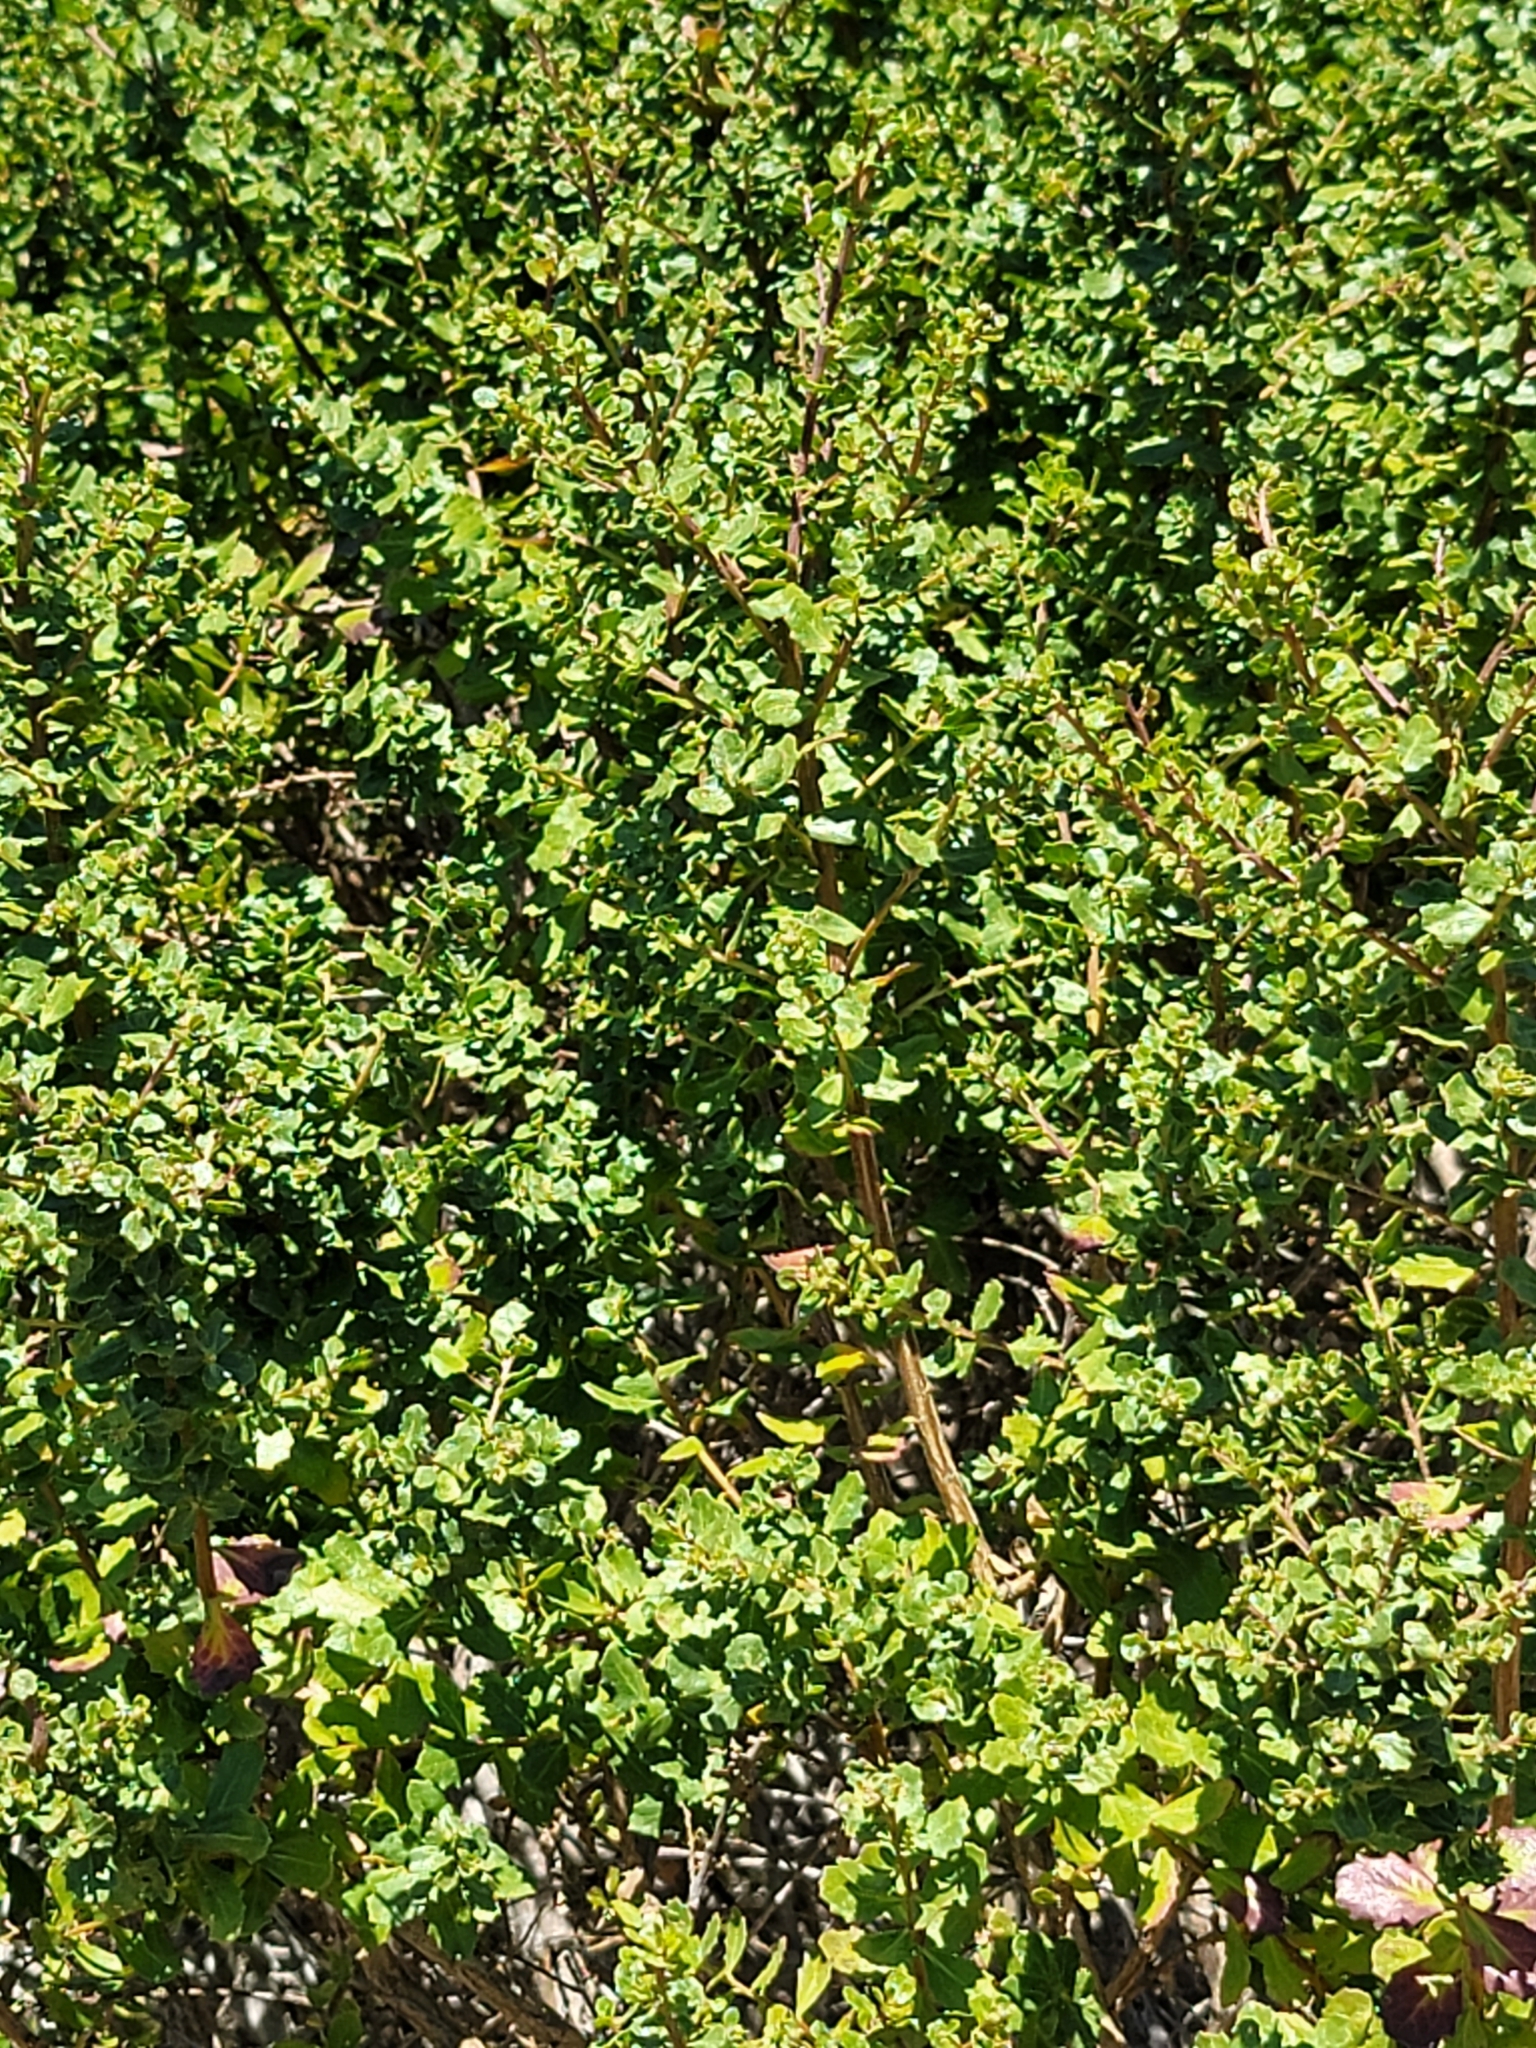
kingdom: Plantae
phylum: Tracheophyta
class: Magnoliopsida
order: Asterales
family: Asteraceae
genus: Baccharis
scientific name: Baccharis pilularis
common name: Coyotebrush
